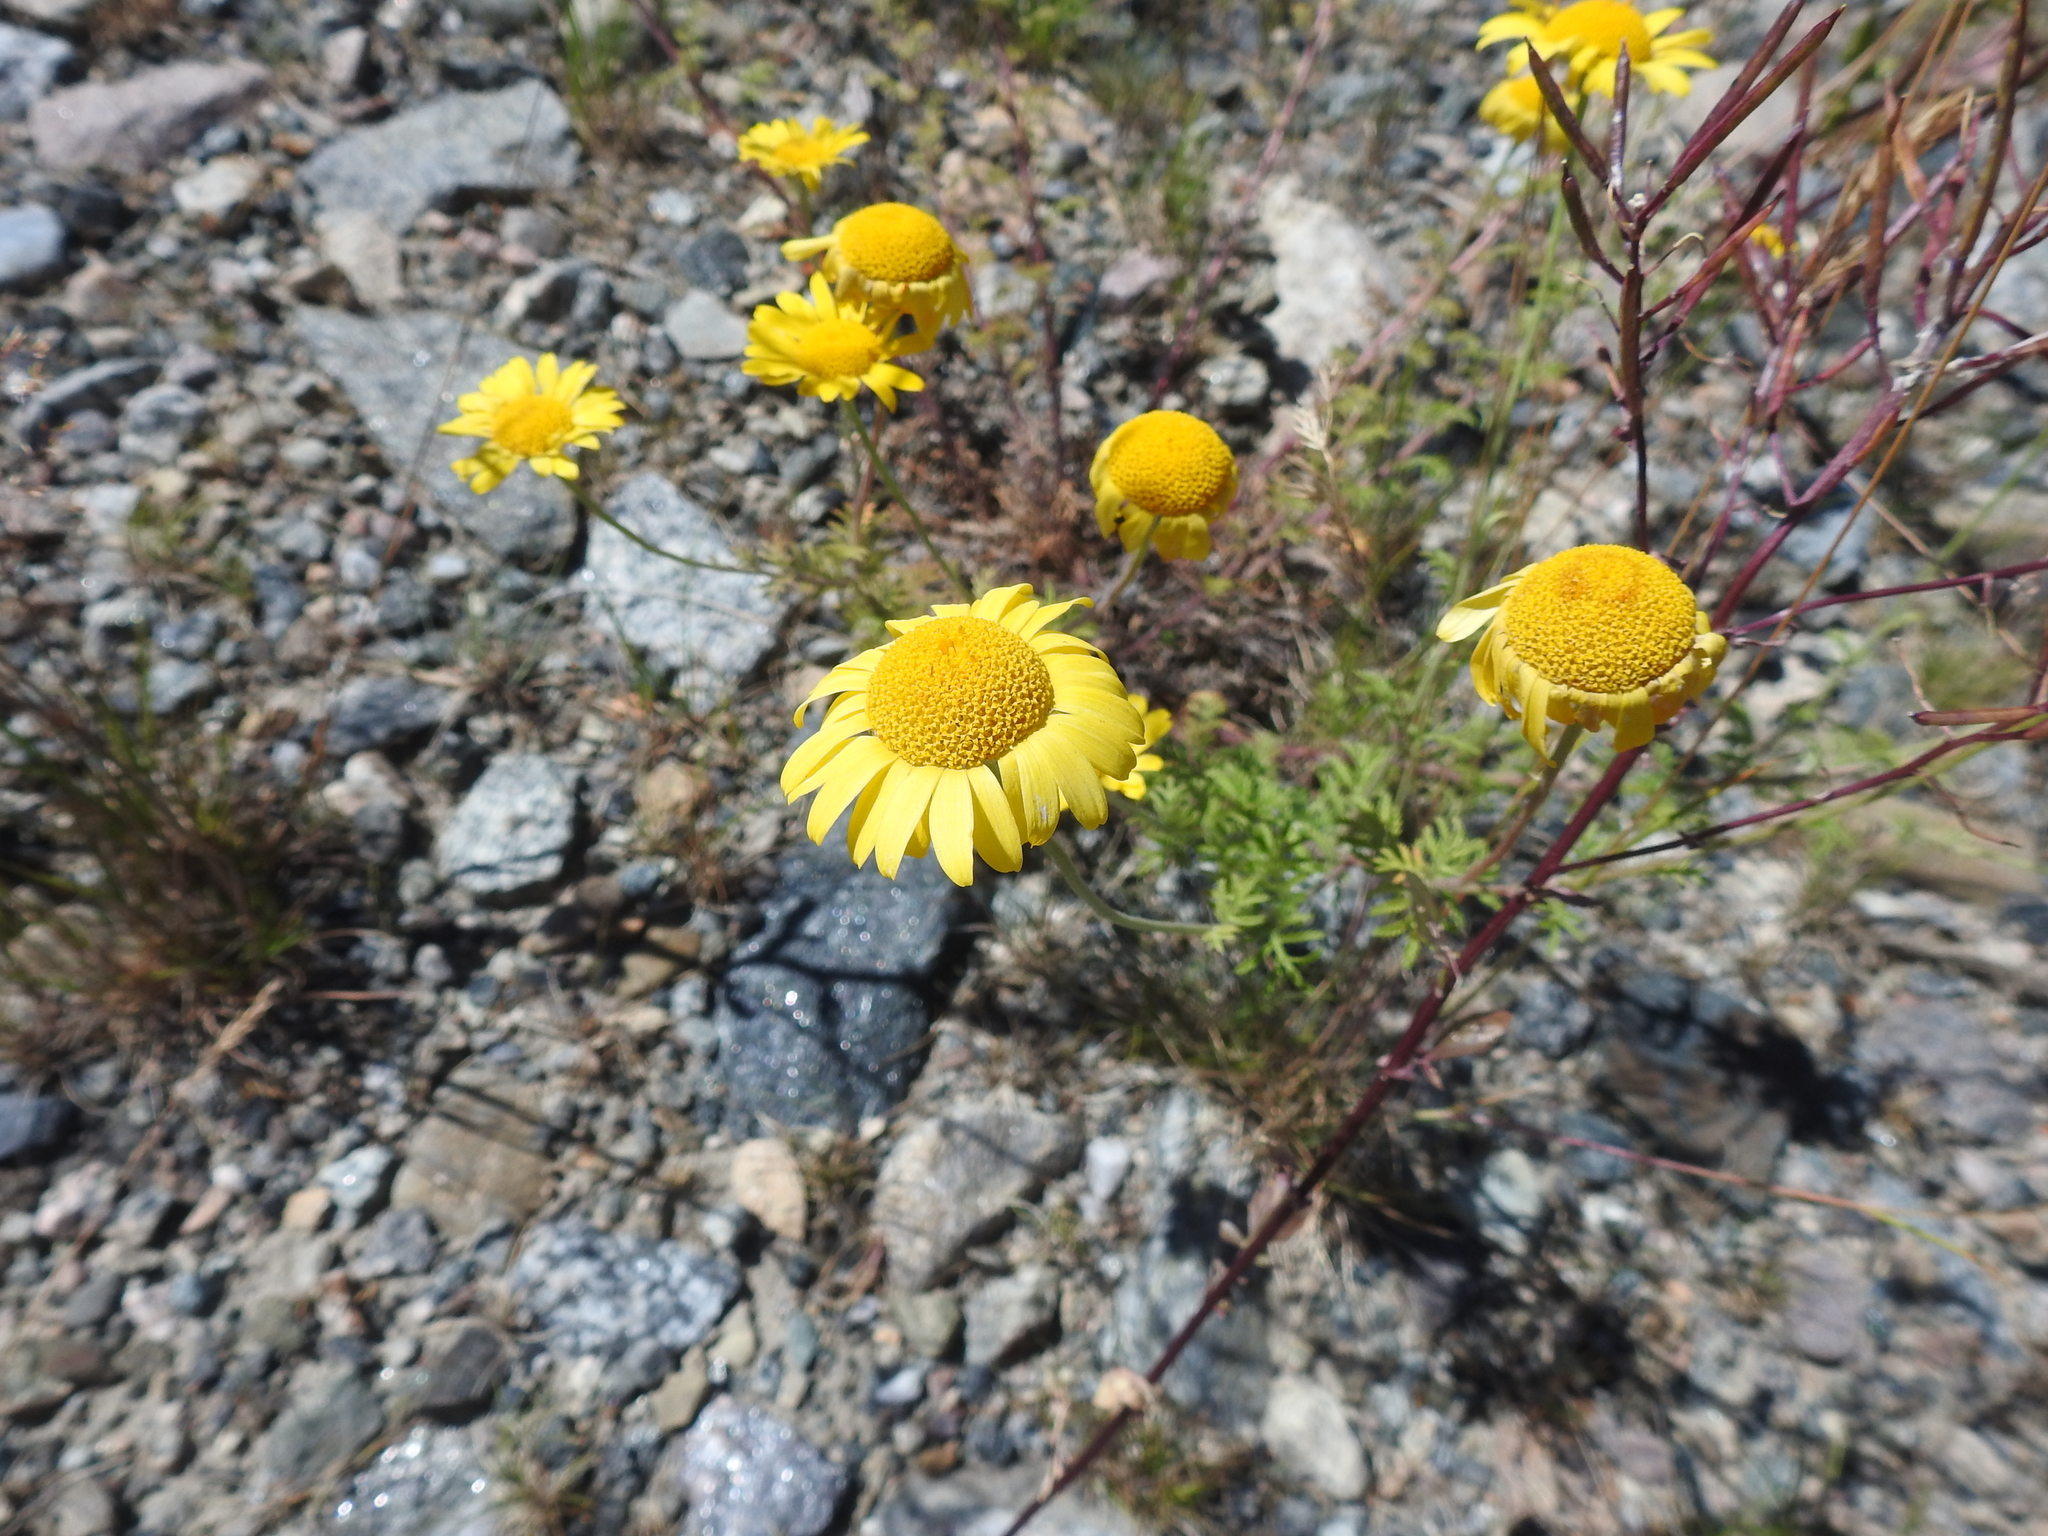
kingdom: Plantae
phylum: Tracheophyta
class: Magnoliopsida
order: Asterales
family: Asteraceae
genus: Cota
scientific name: Cota tinctoria
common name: Golden chamomile
